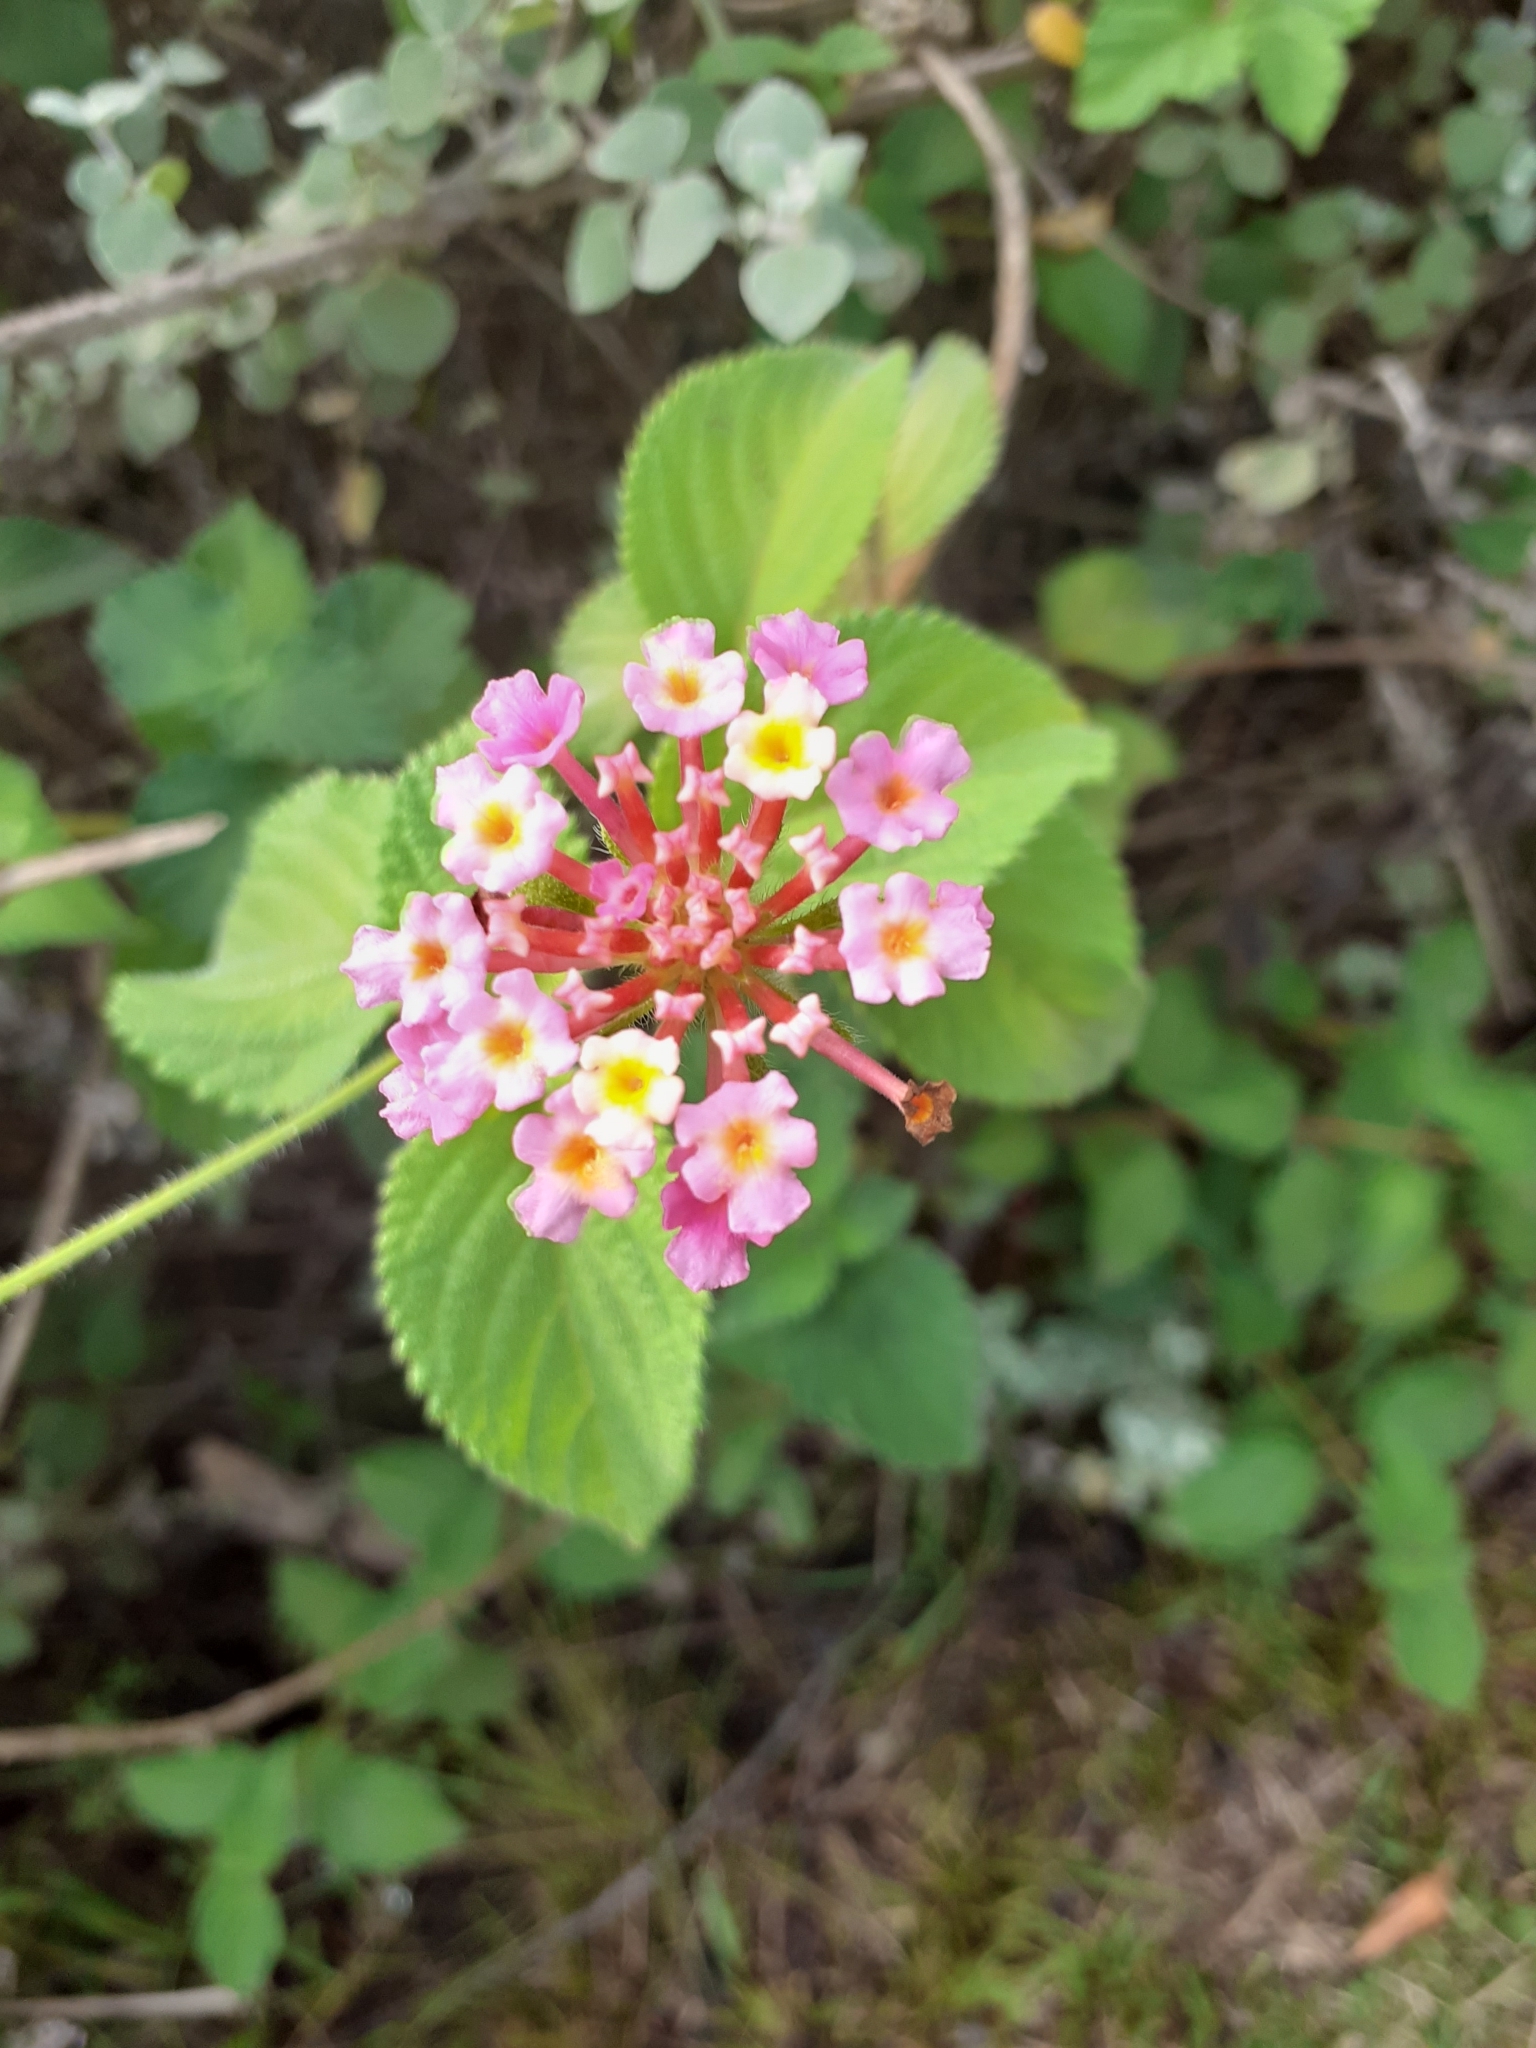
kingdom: Plantae
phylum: Tracheophyta
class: Magnoliopsida
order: Lamiales
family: Verbenaceae
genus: Lantana
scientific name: Lantana camara
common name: Lantana
